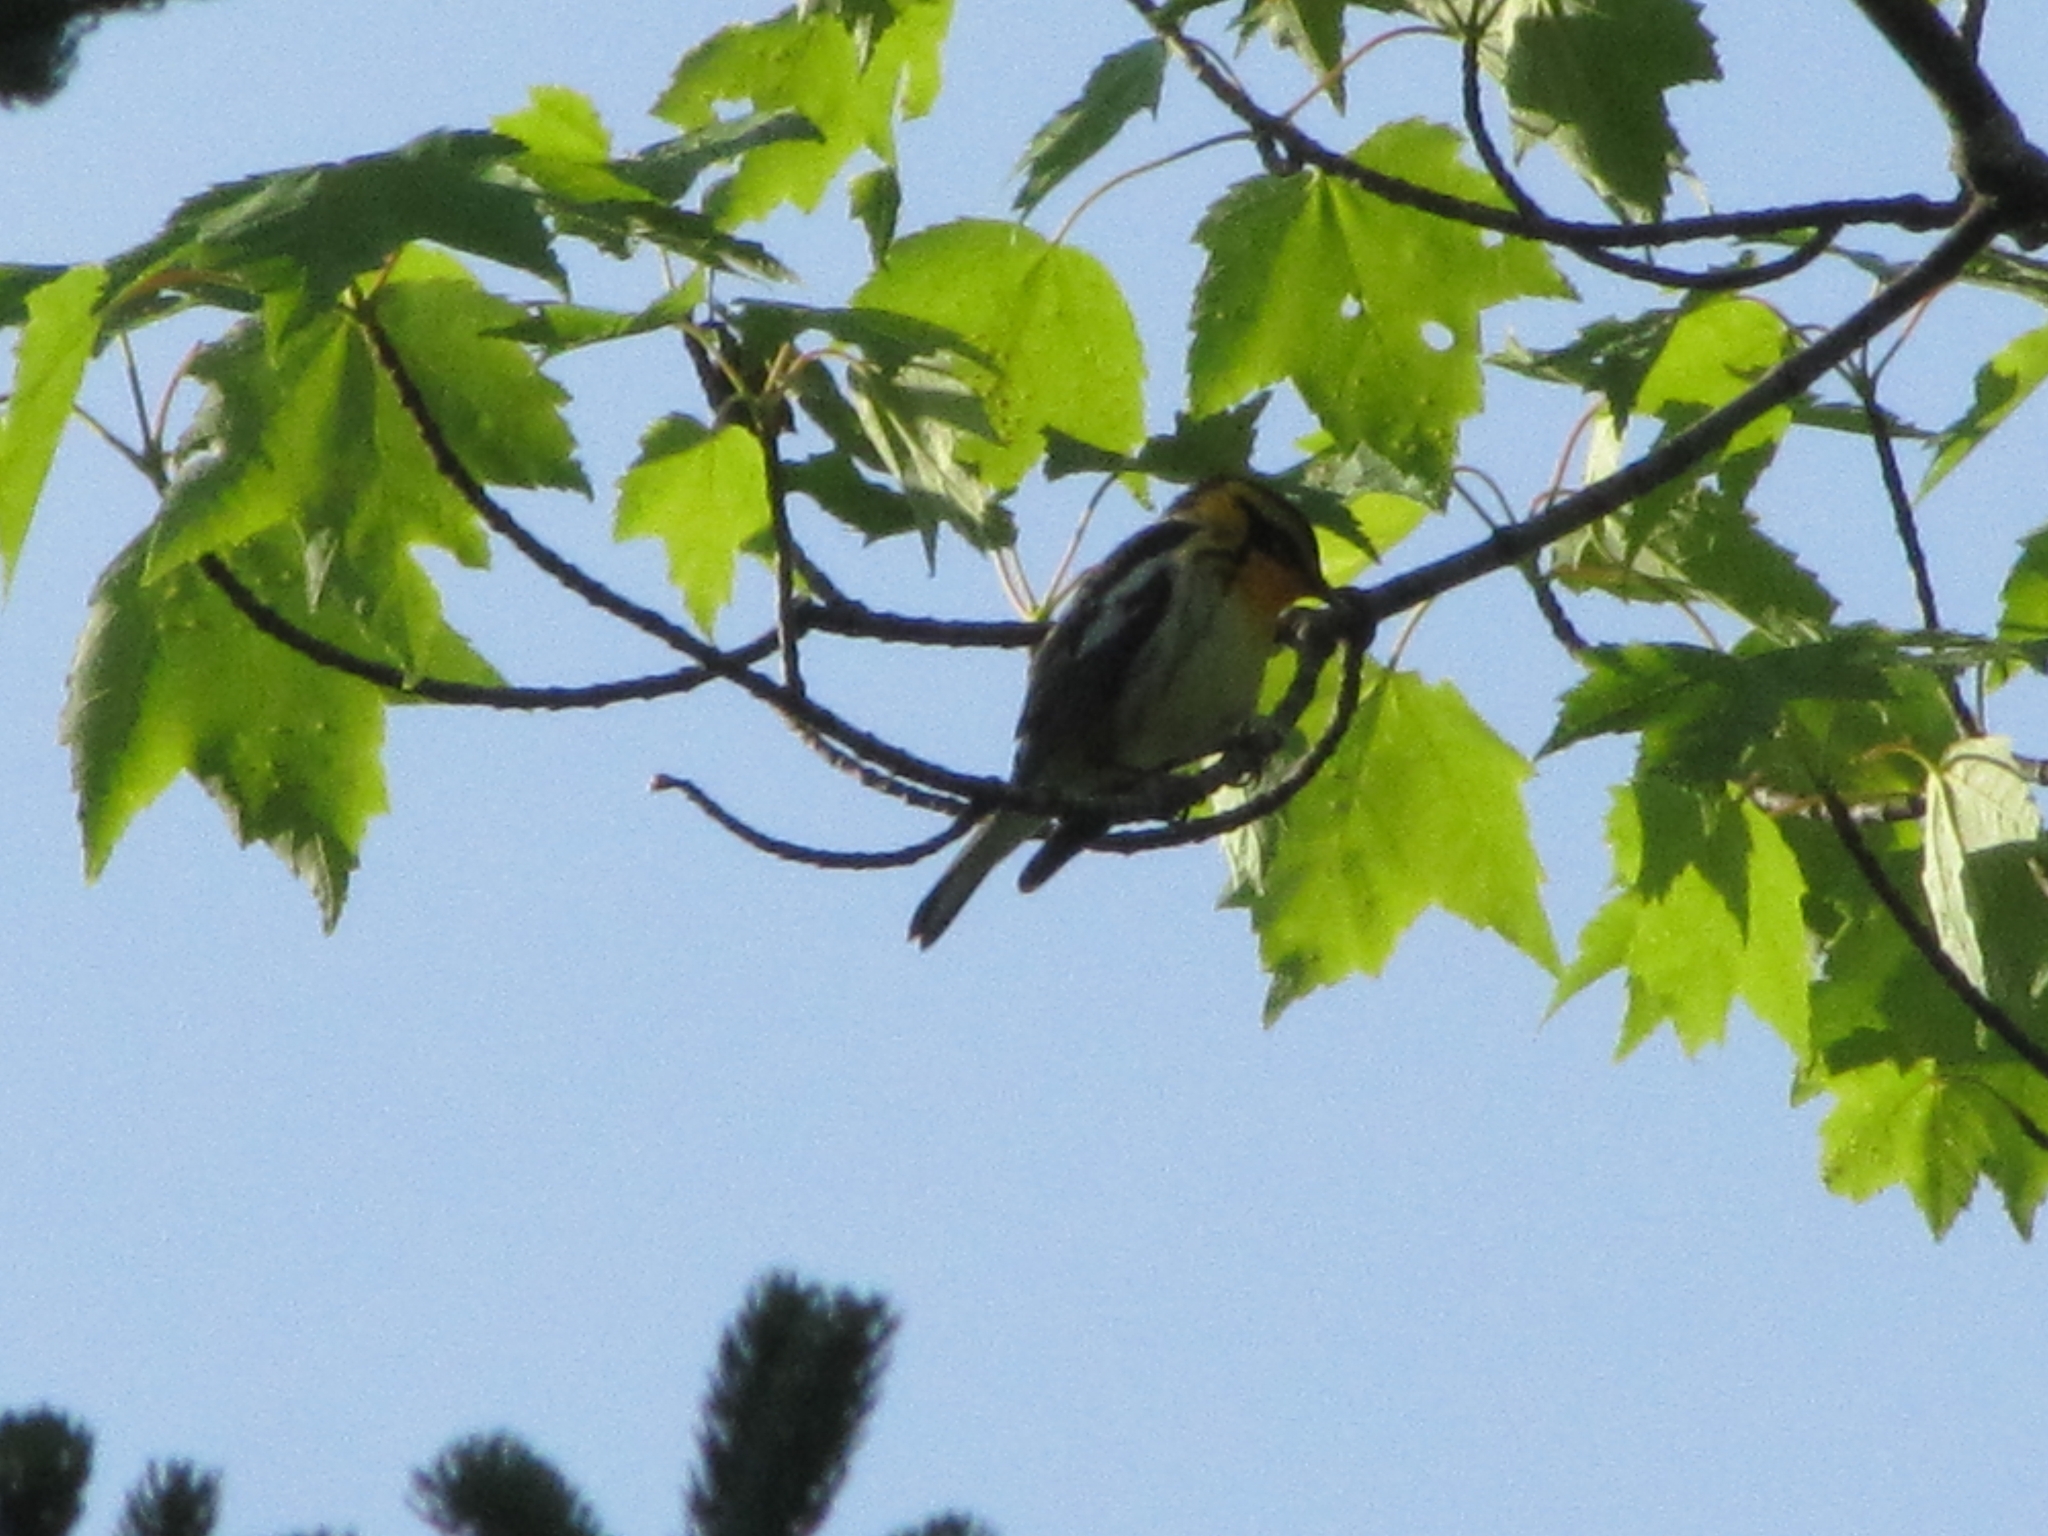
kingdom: Animalia
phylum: Chordata
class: Aves
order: Passeriformes
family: Parulidae
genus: Setophaga
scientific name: Setophaga fusca
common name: Blackburnian warbler
